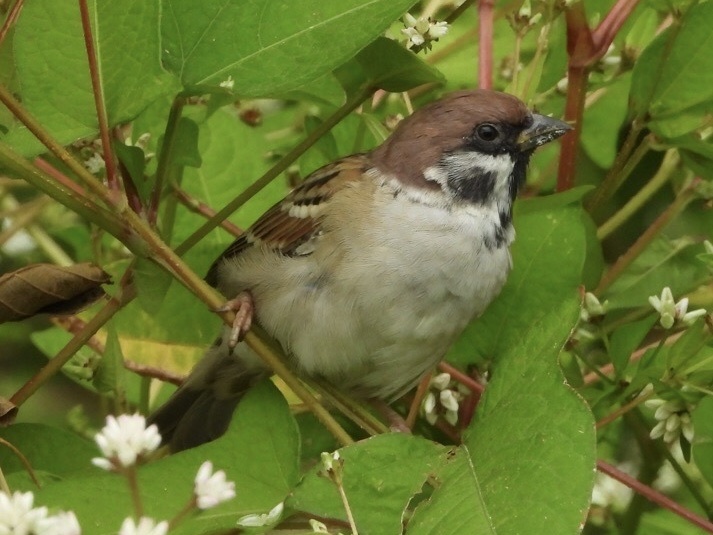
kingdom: Animalia
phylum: Chordata
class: Aves
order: Passeriformes
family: Passeridae
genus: Passer
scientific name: Passer montanus
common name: Eurasian tree sparrow
